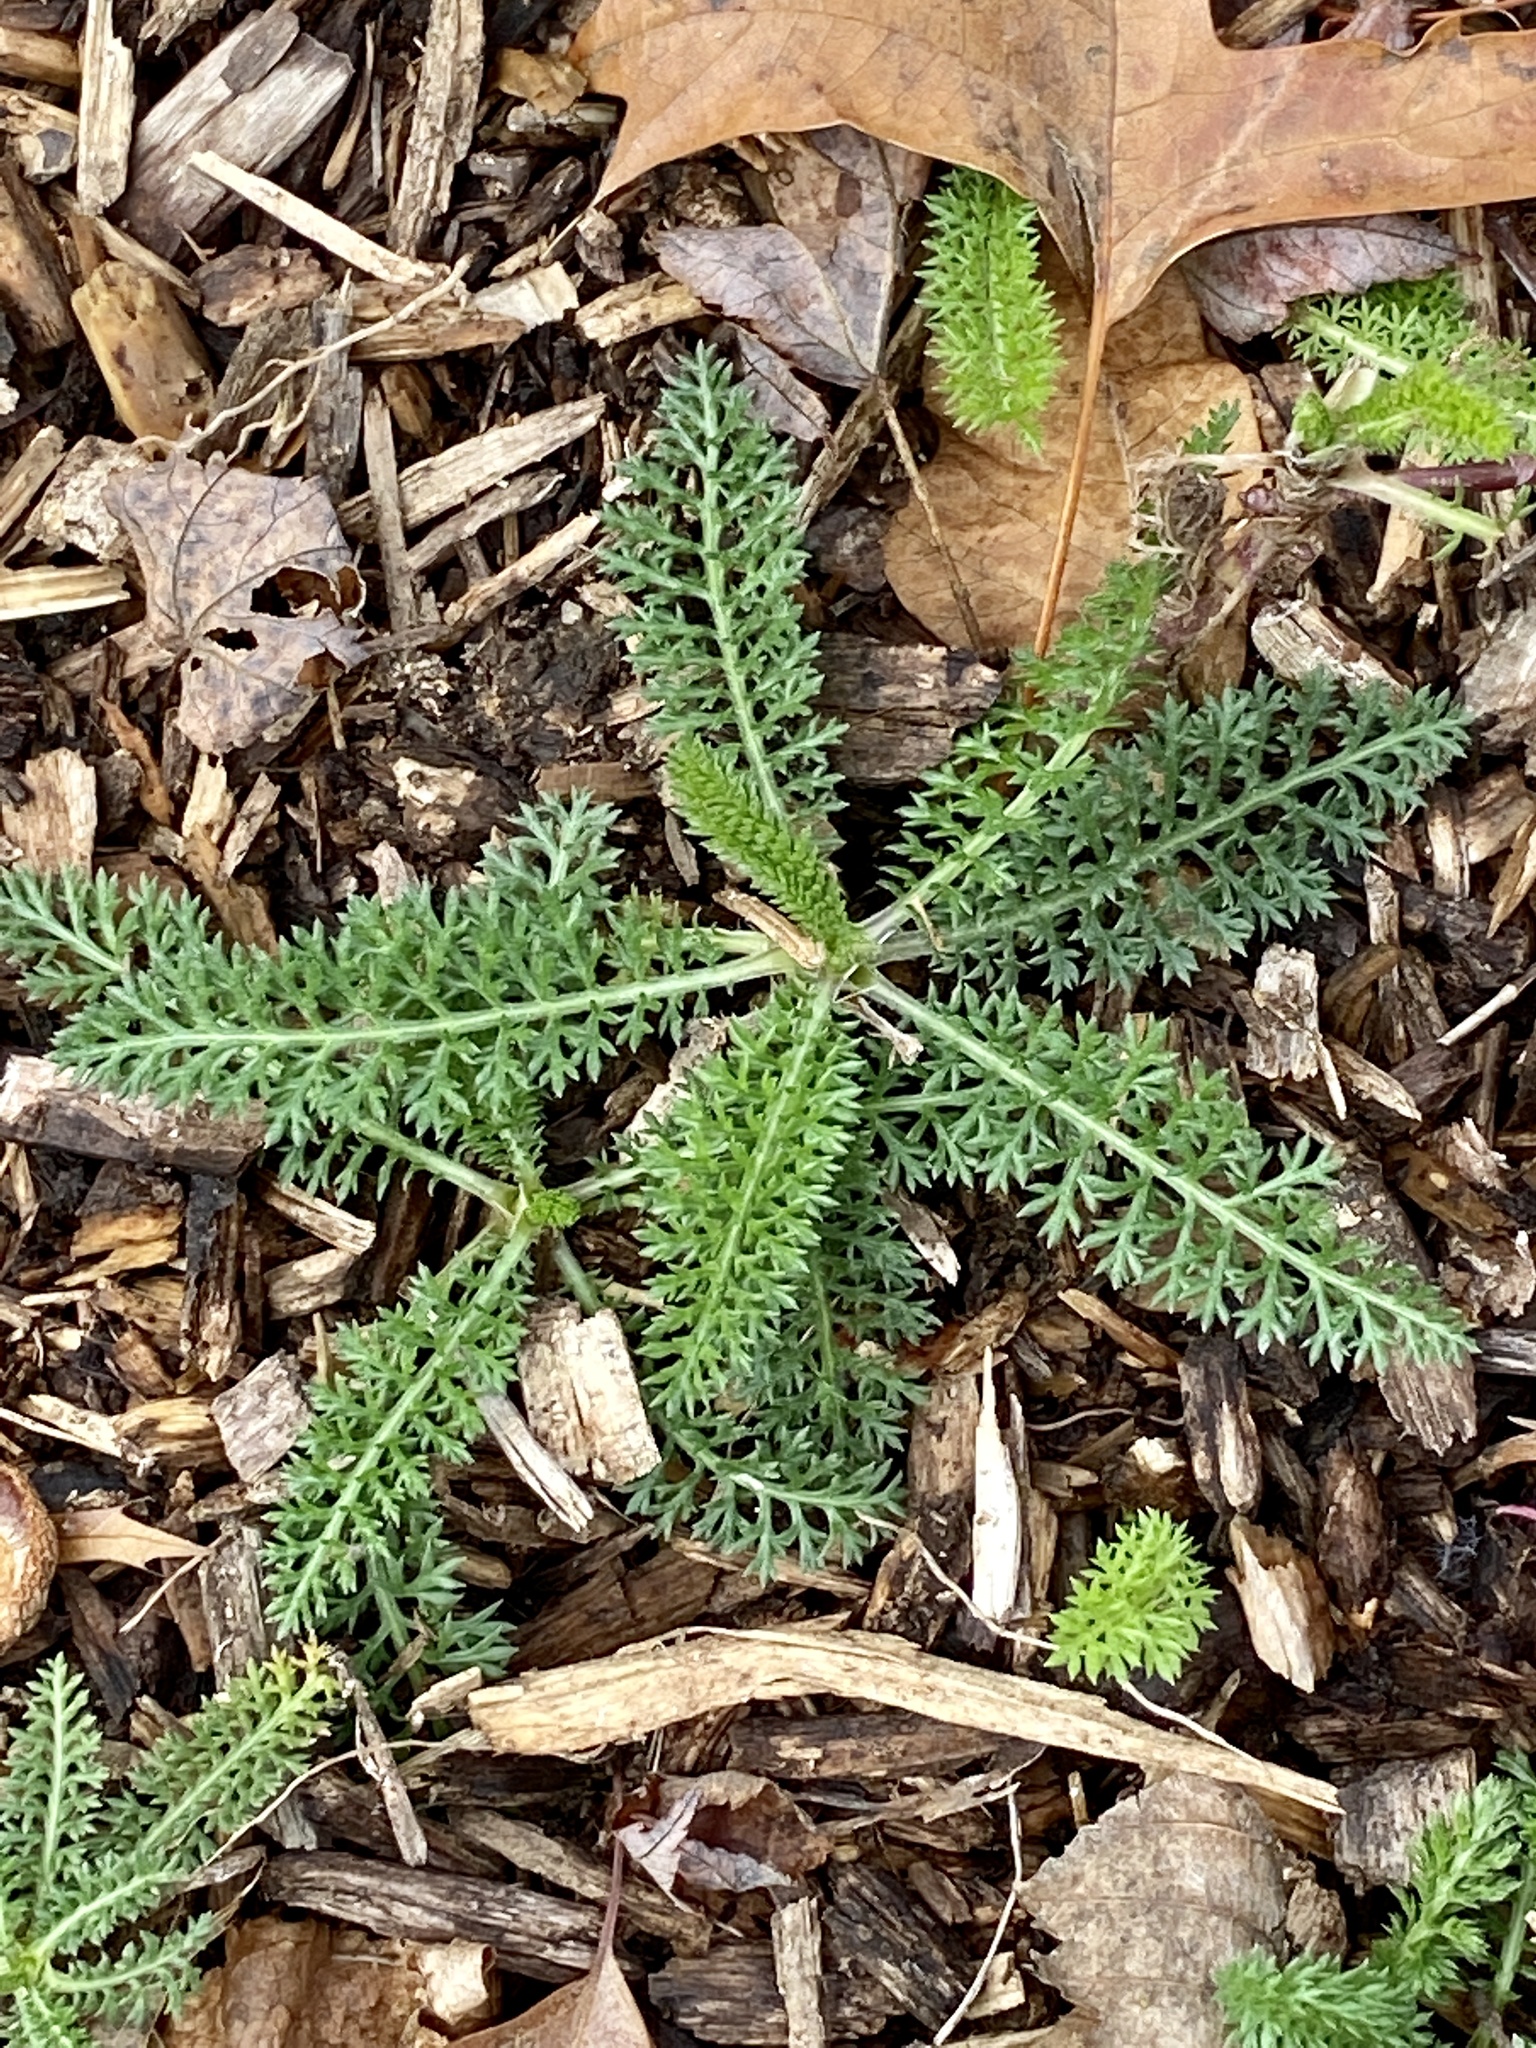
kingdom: Plantae
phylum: Tracheophyta
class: Magnoliopsida
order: Asterales
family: Asteraceae
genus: Achillea
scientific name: Achillea millefolium
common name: Yarrow
